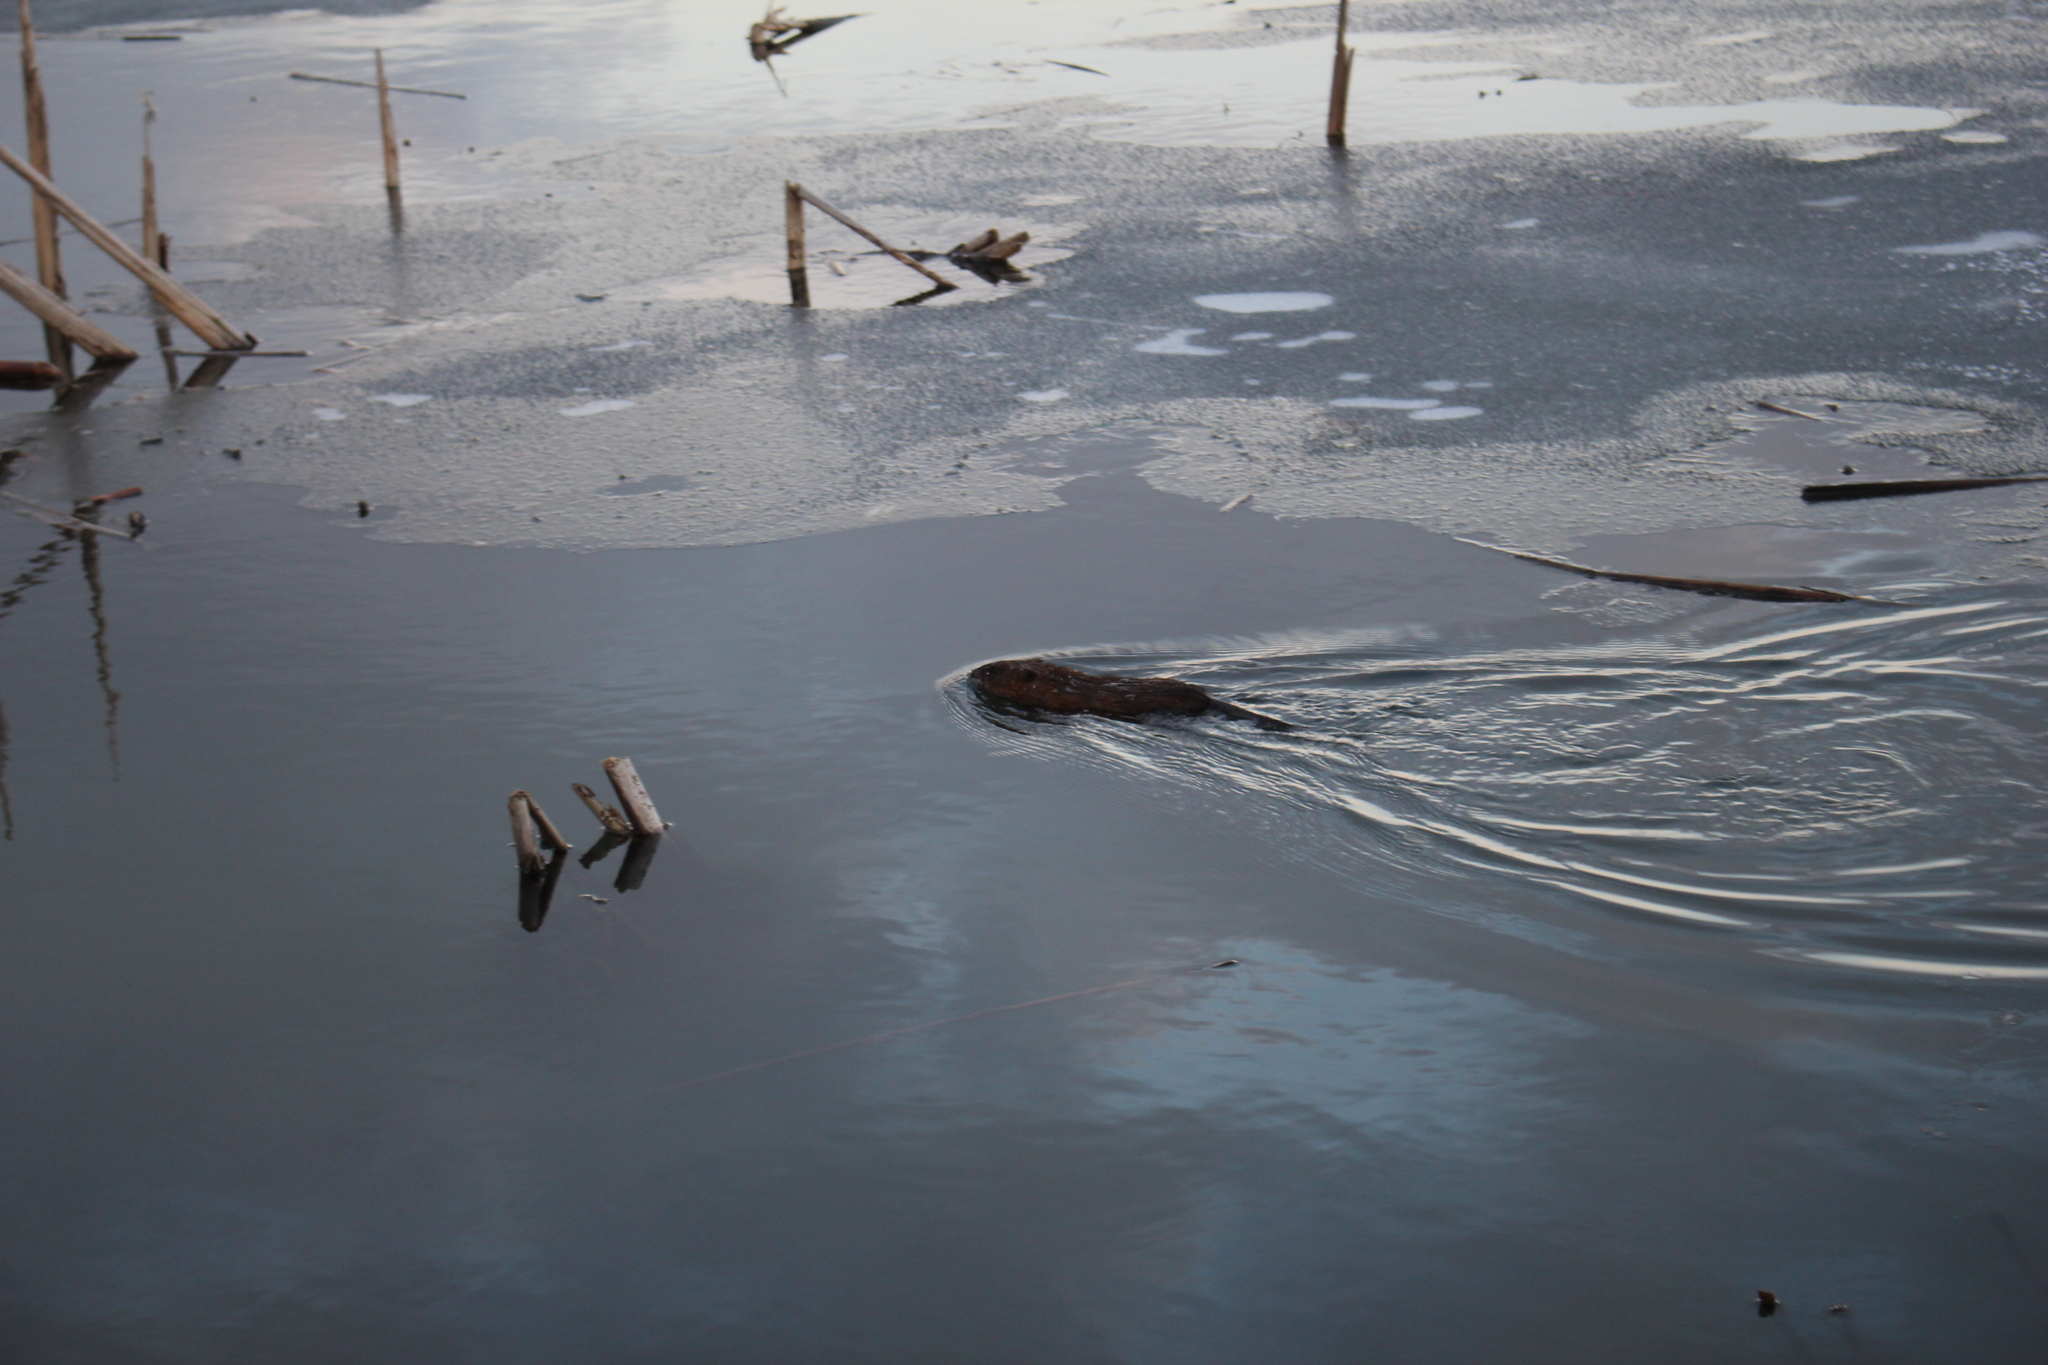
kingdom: Animalia
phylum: Chordata
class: Mammalia
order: Rodentia
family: Cricetidae
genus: Ondatra
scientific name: Ondatra zibethicus
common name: Muskrat
